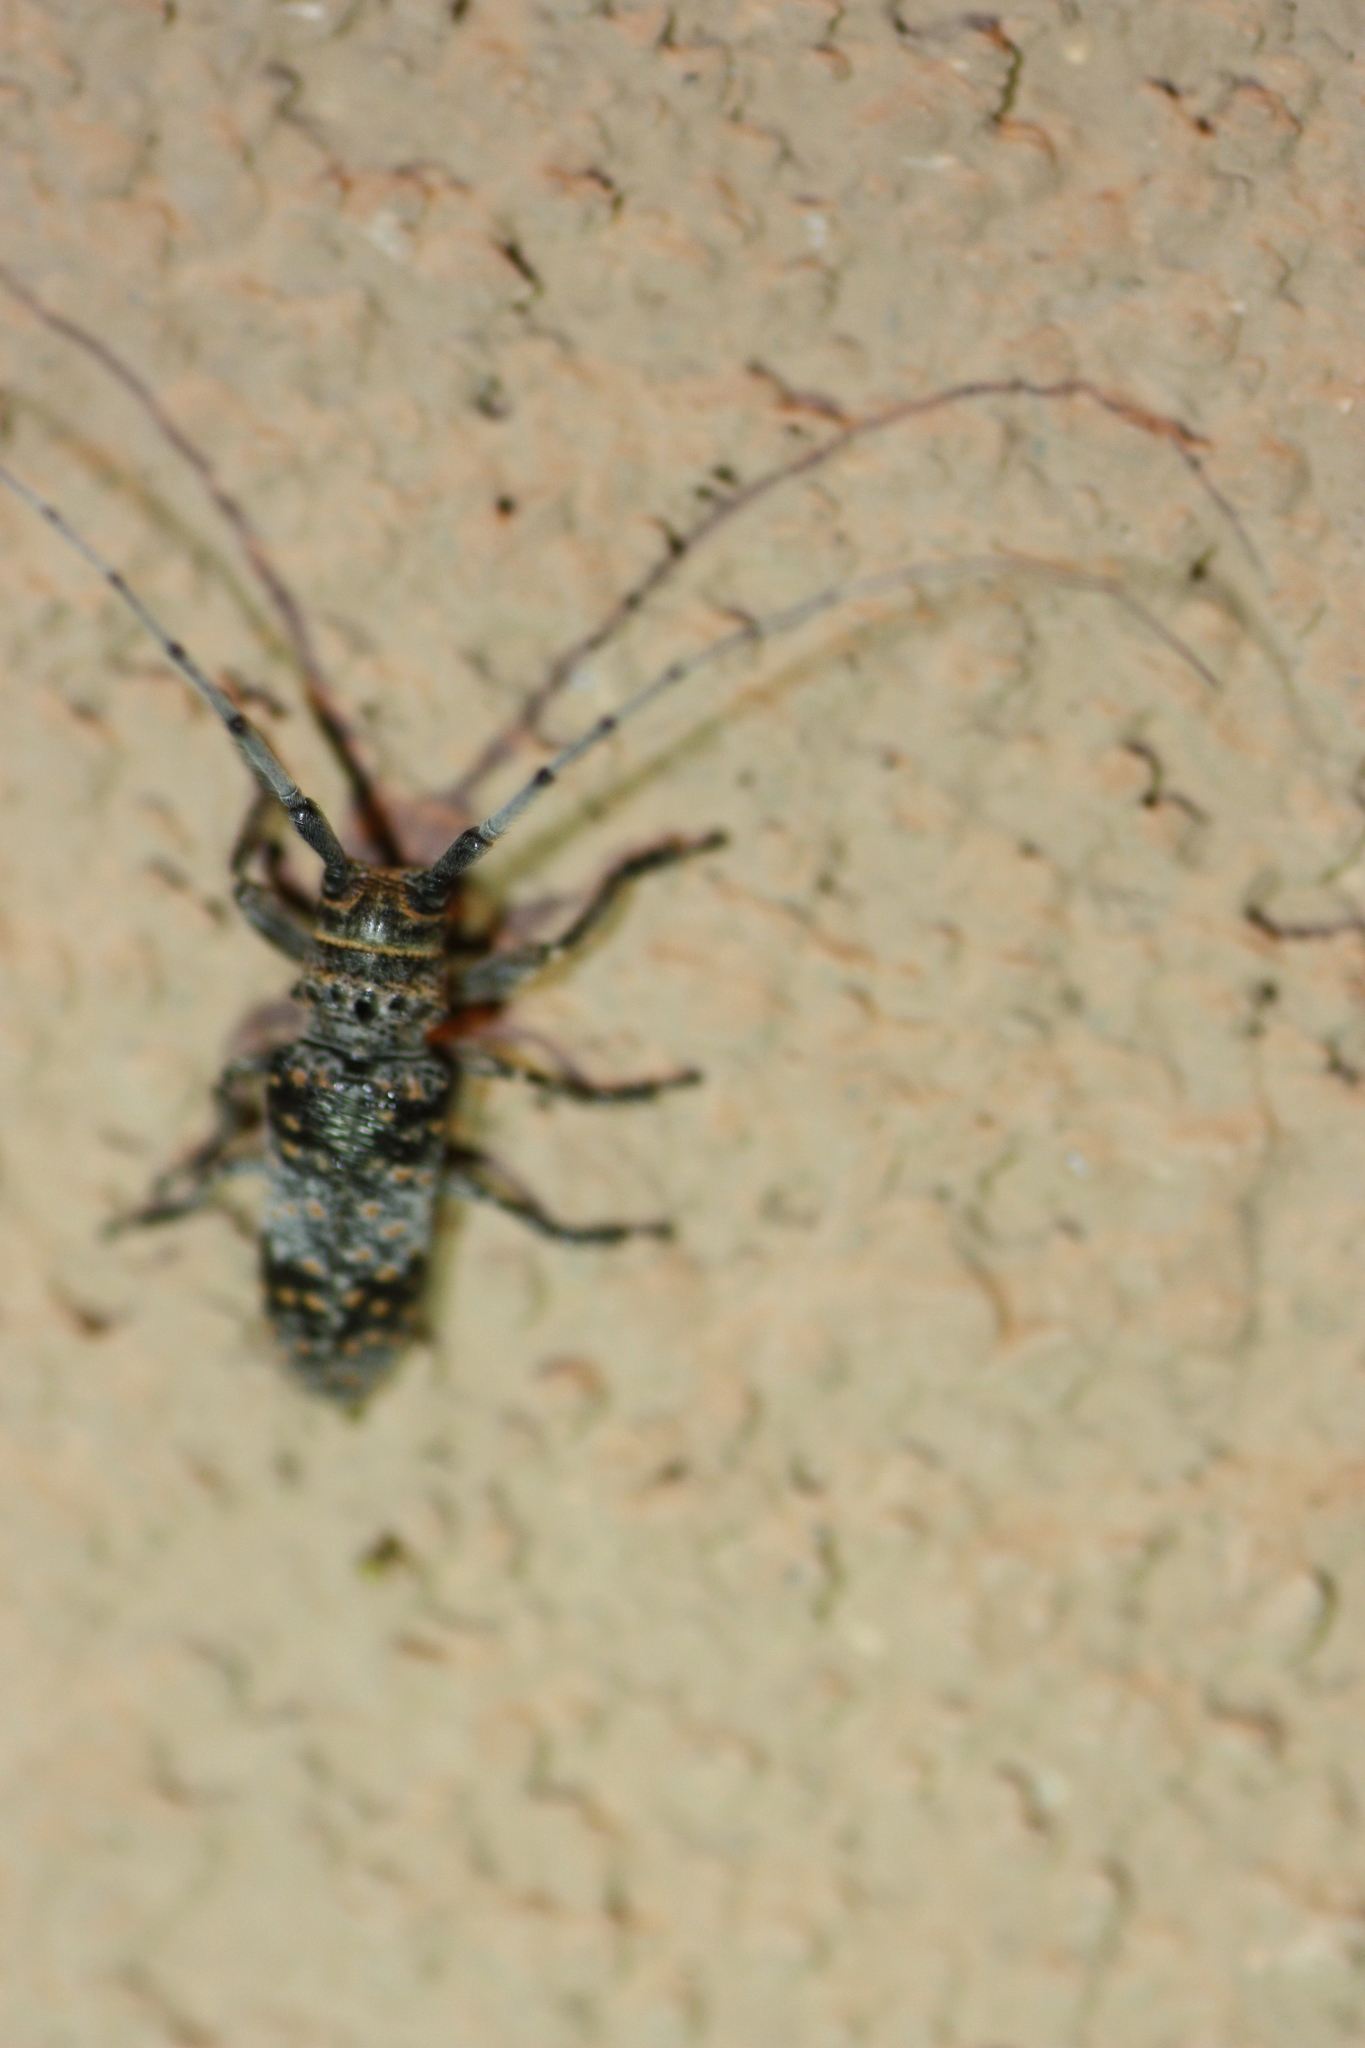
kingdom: Animalia
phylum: Arthropoda
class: Insecta
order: Coleoptera
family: Cerambycidae
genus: Oncideres
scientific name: Oncideres rhodosticta
